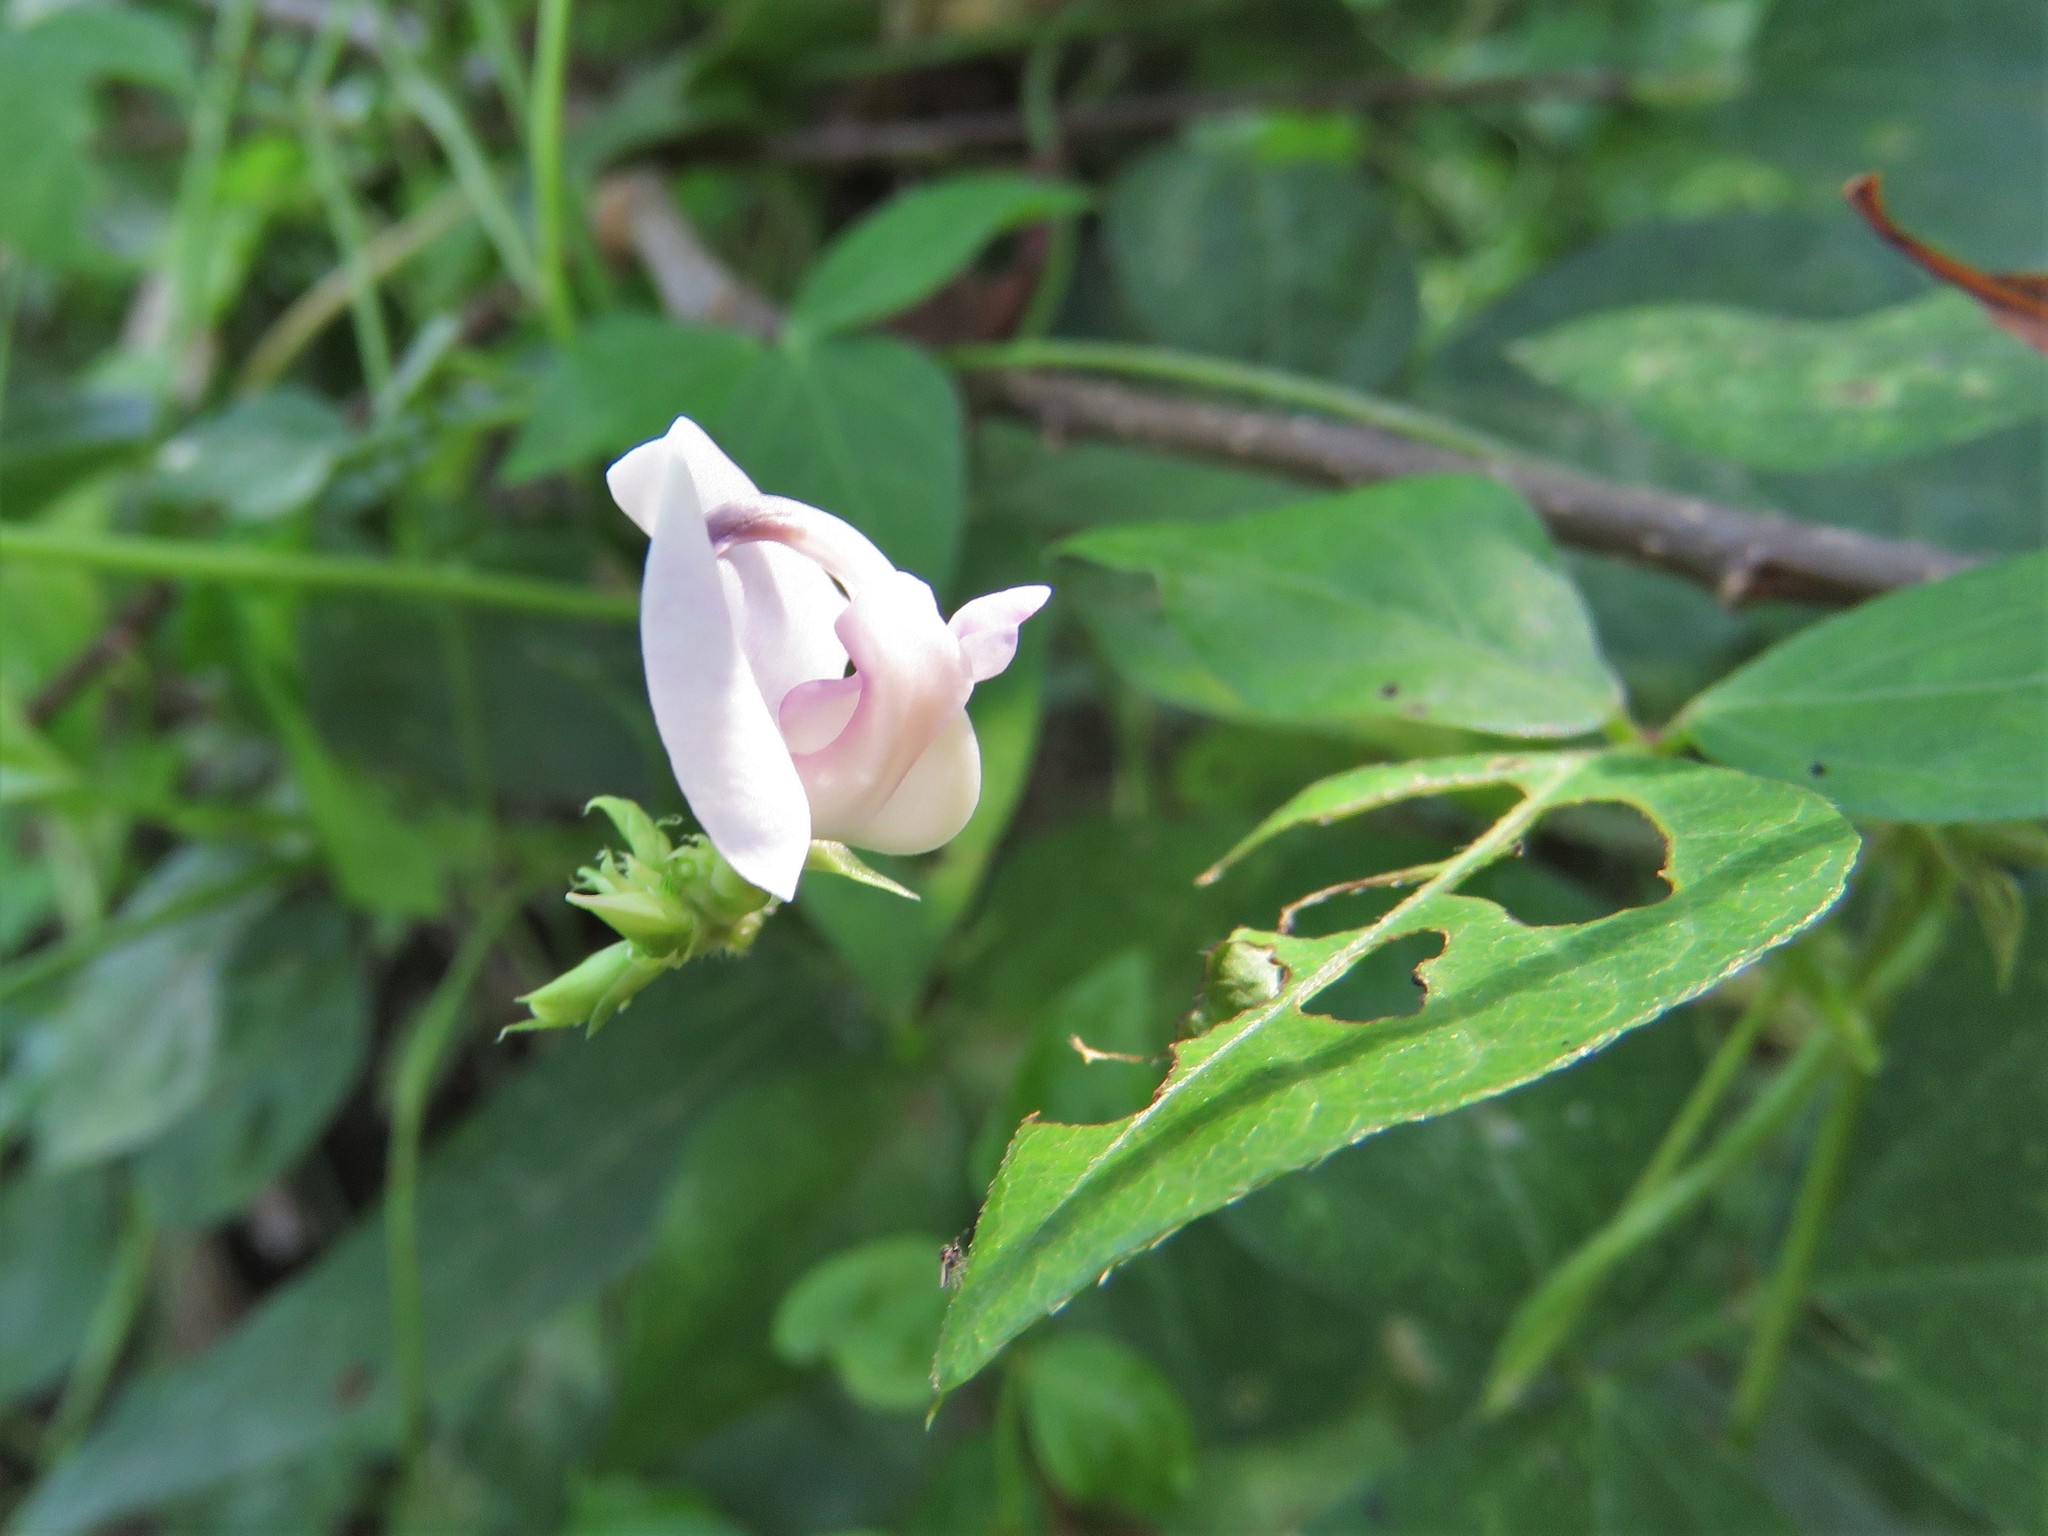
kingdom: Plantae
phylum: Tracheophyta
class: Magnoliopsida
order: Fabales
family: Fabaceae
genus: Strophostyles
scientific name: Strophostyles helvola
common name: Trailing wild bean
